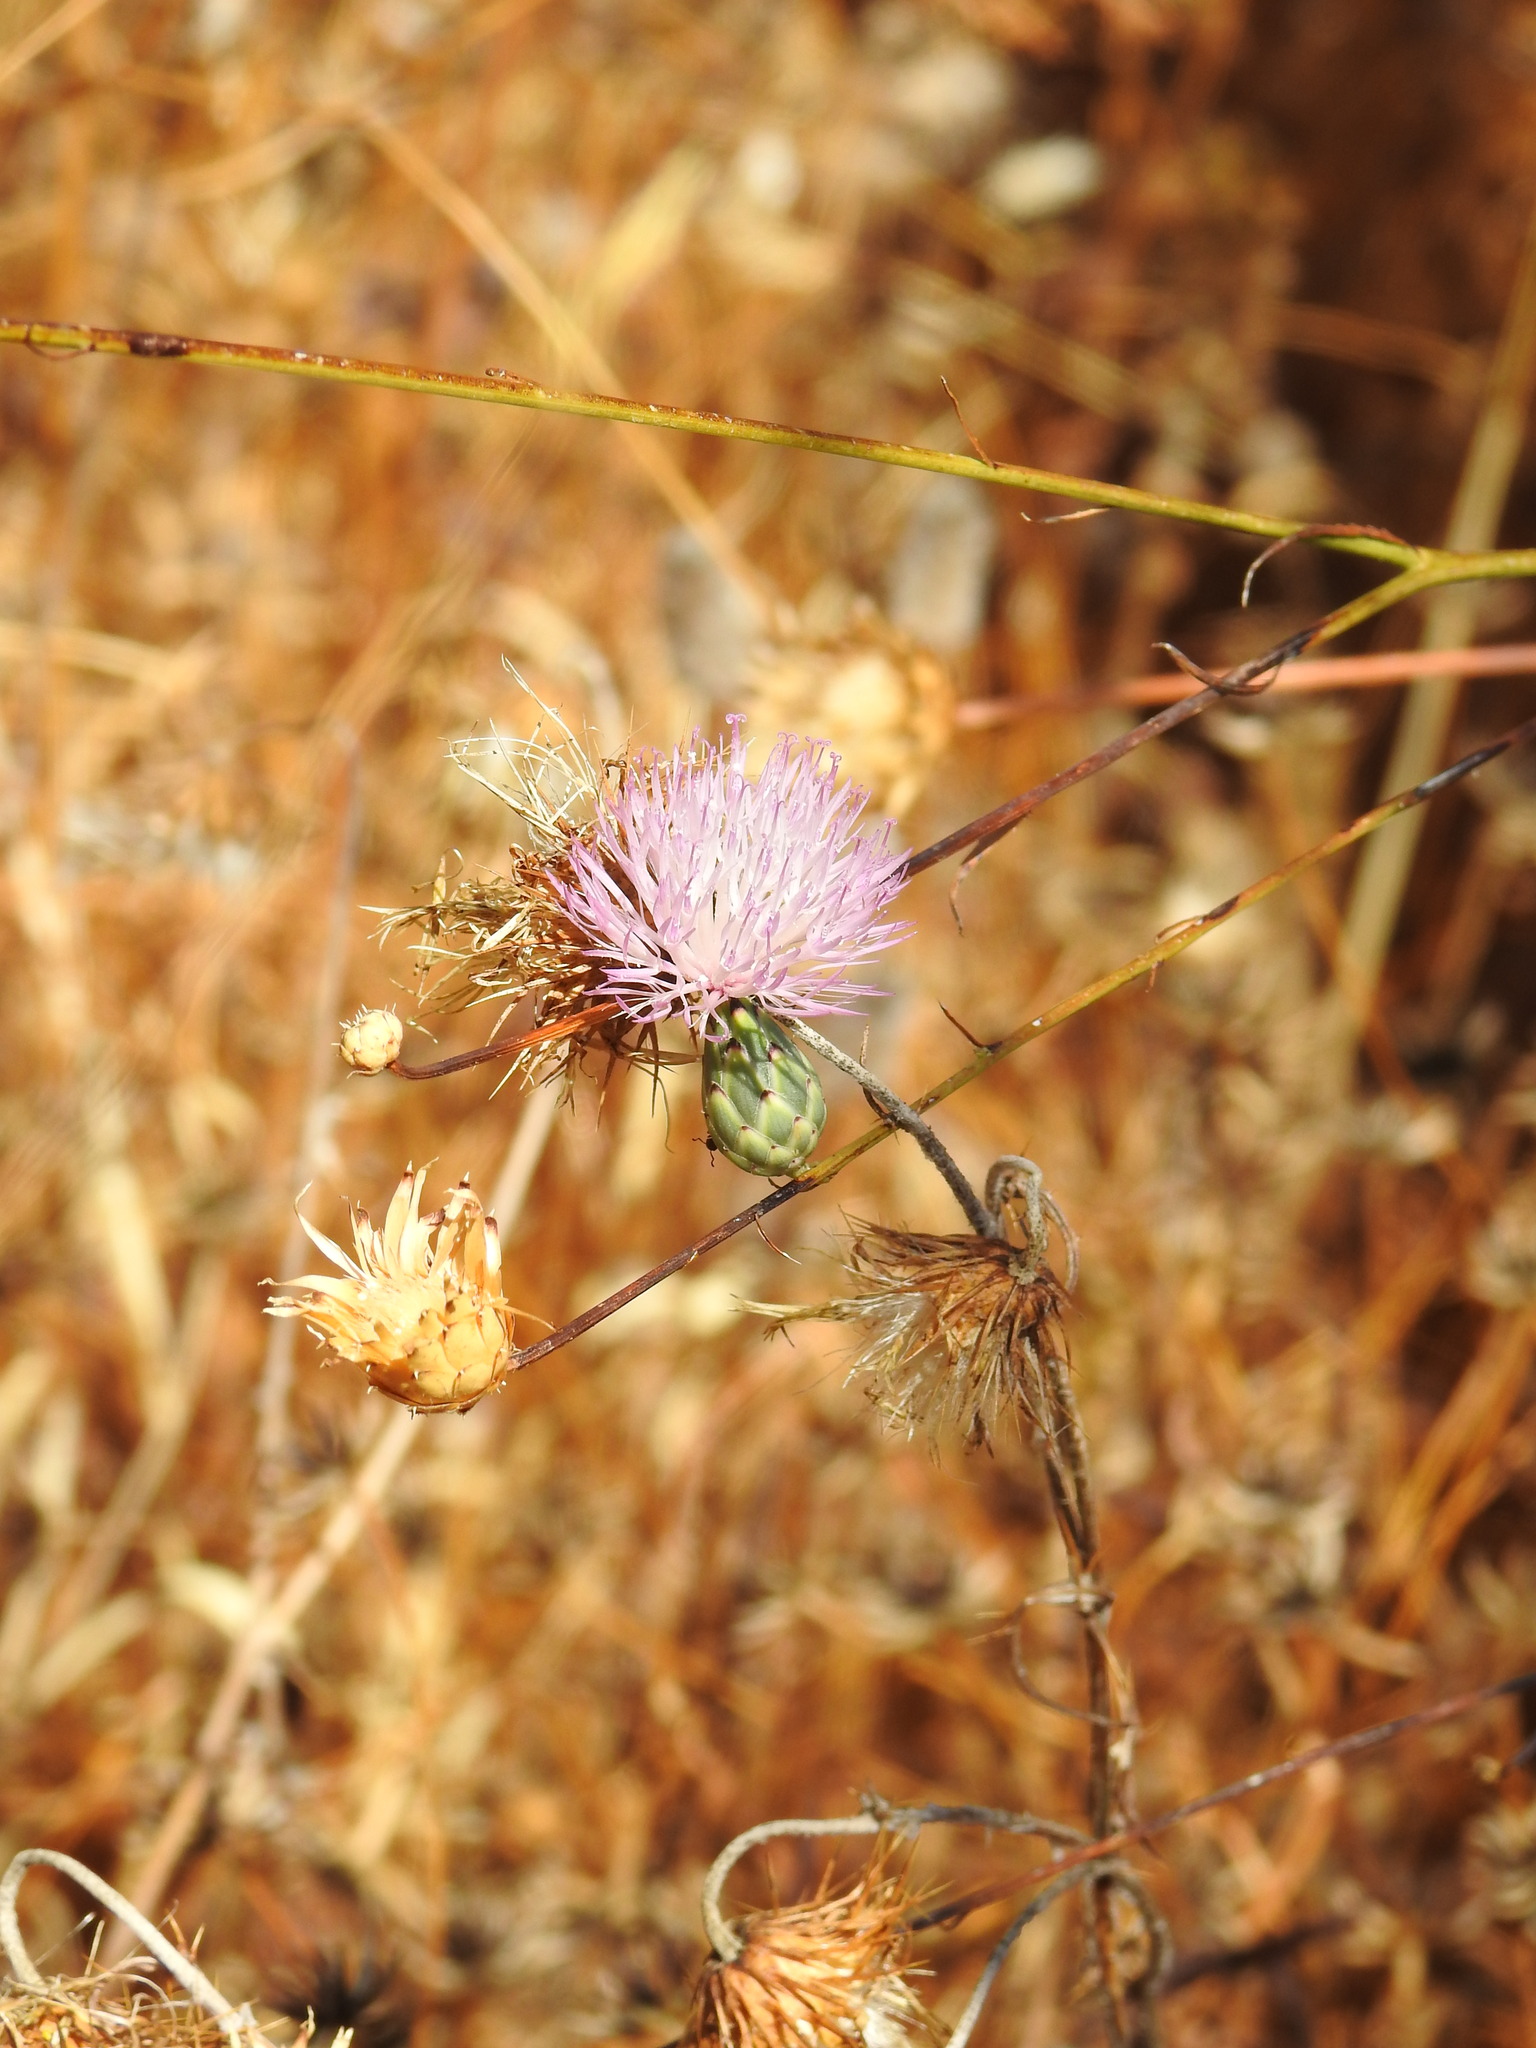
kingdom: Plantae
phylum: Tracheophyta
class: Magnoliopsida
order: Asterales
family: Asteraceae
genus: Mantisalca
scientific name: Mantisalca salmantica
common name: Dagger flower
